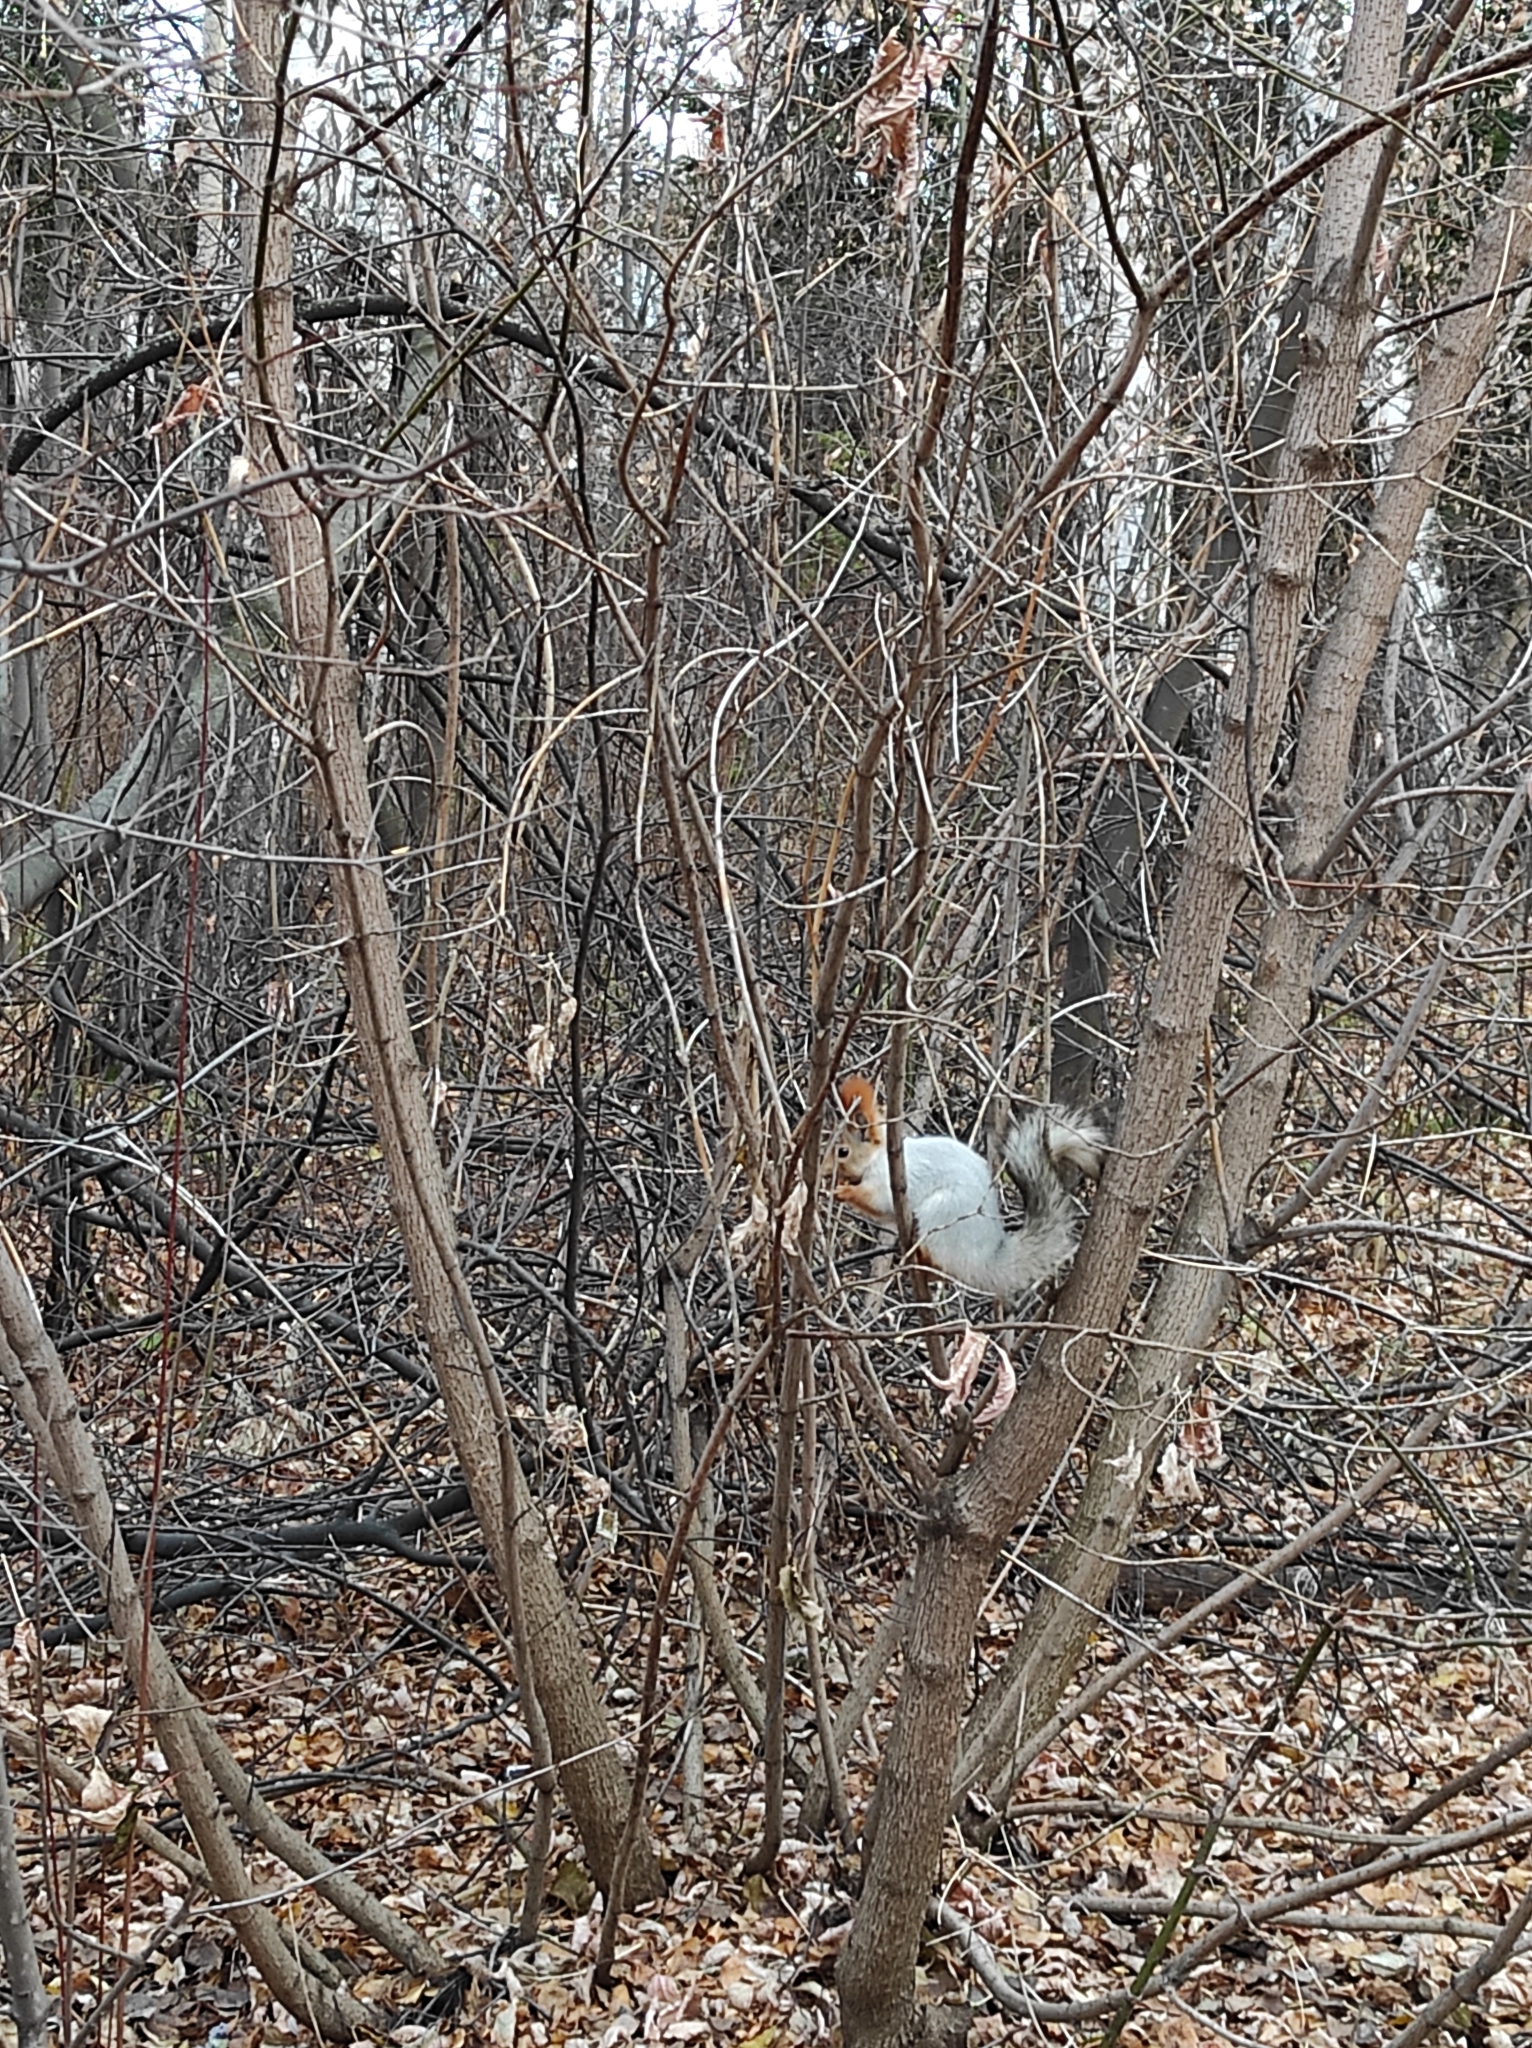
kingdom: Animalia
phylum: Chordata
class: Mammalia
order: Rodentia
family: Sciuridae
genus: Sciurus
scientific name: Sciurus vulgaris
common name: Eurasian red squirrel
